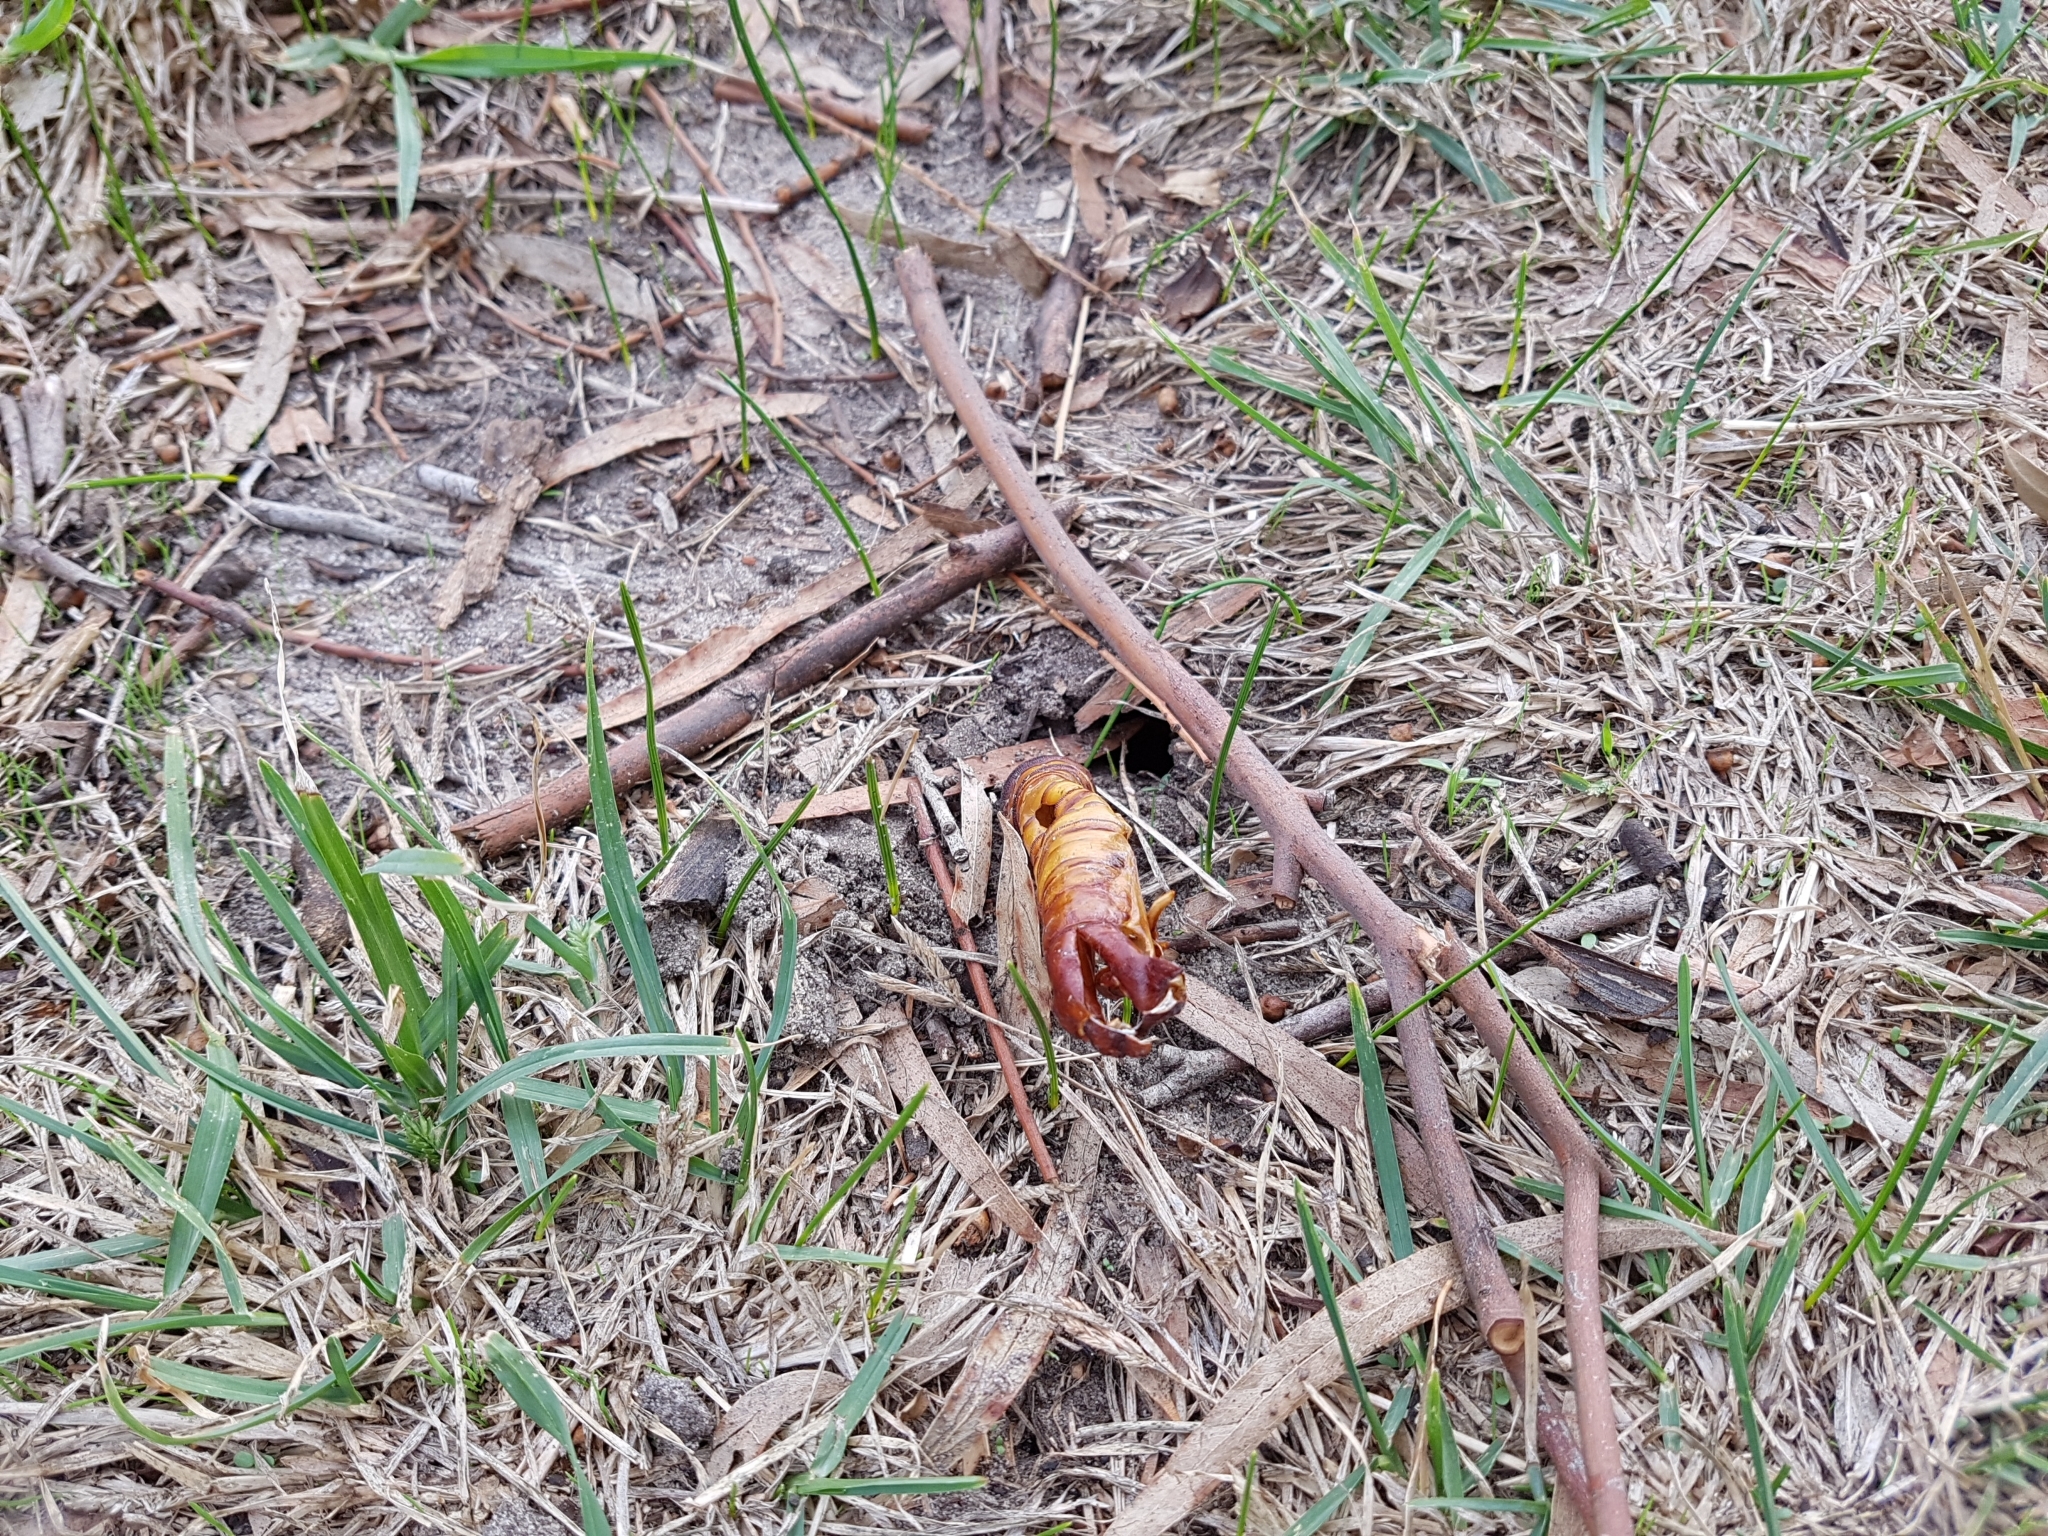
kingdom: Animalia
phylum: Arthropoda
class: Insecta
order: Lepidoptera
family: Hepialidae
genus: Abantiades
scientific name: Abantiades atripalpis
